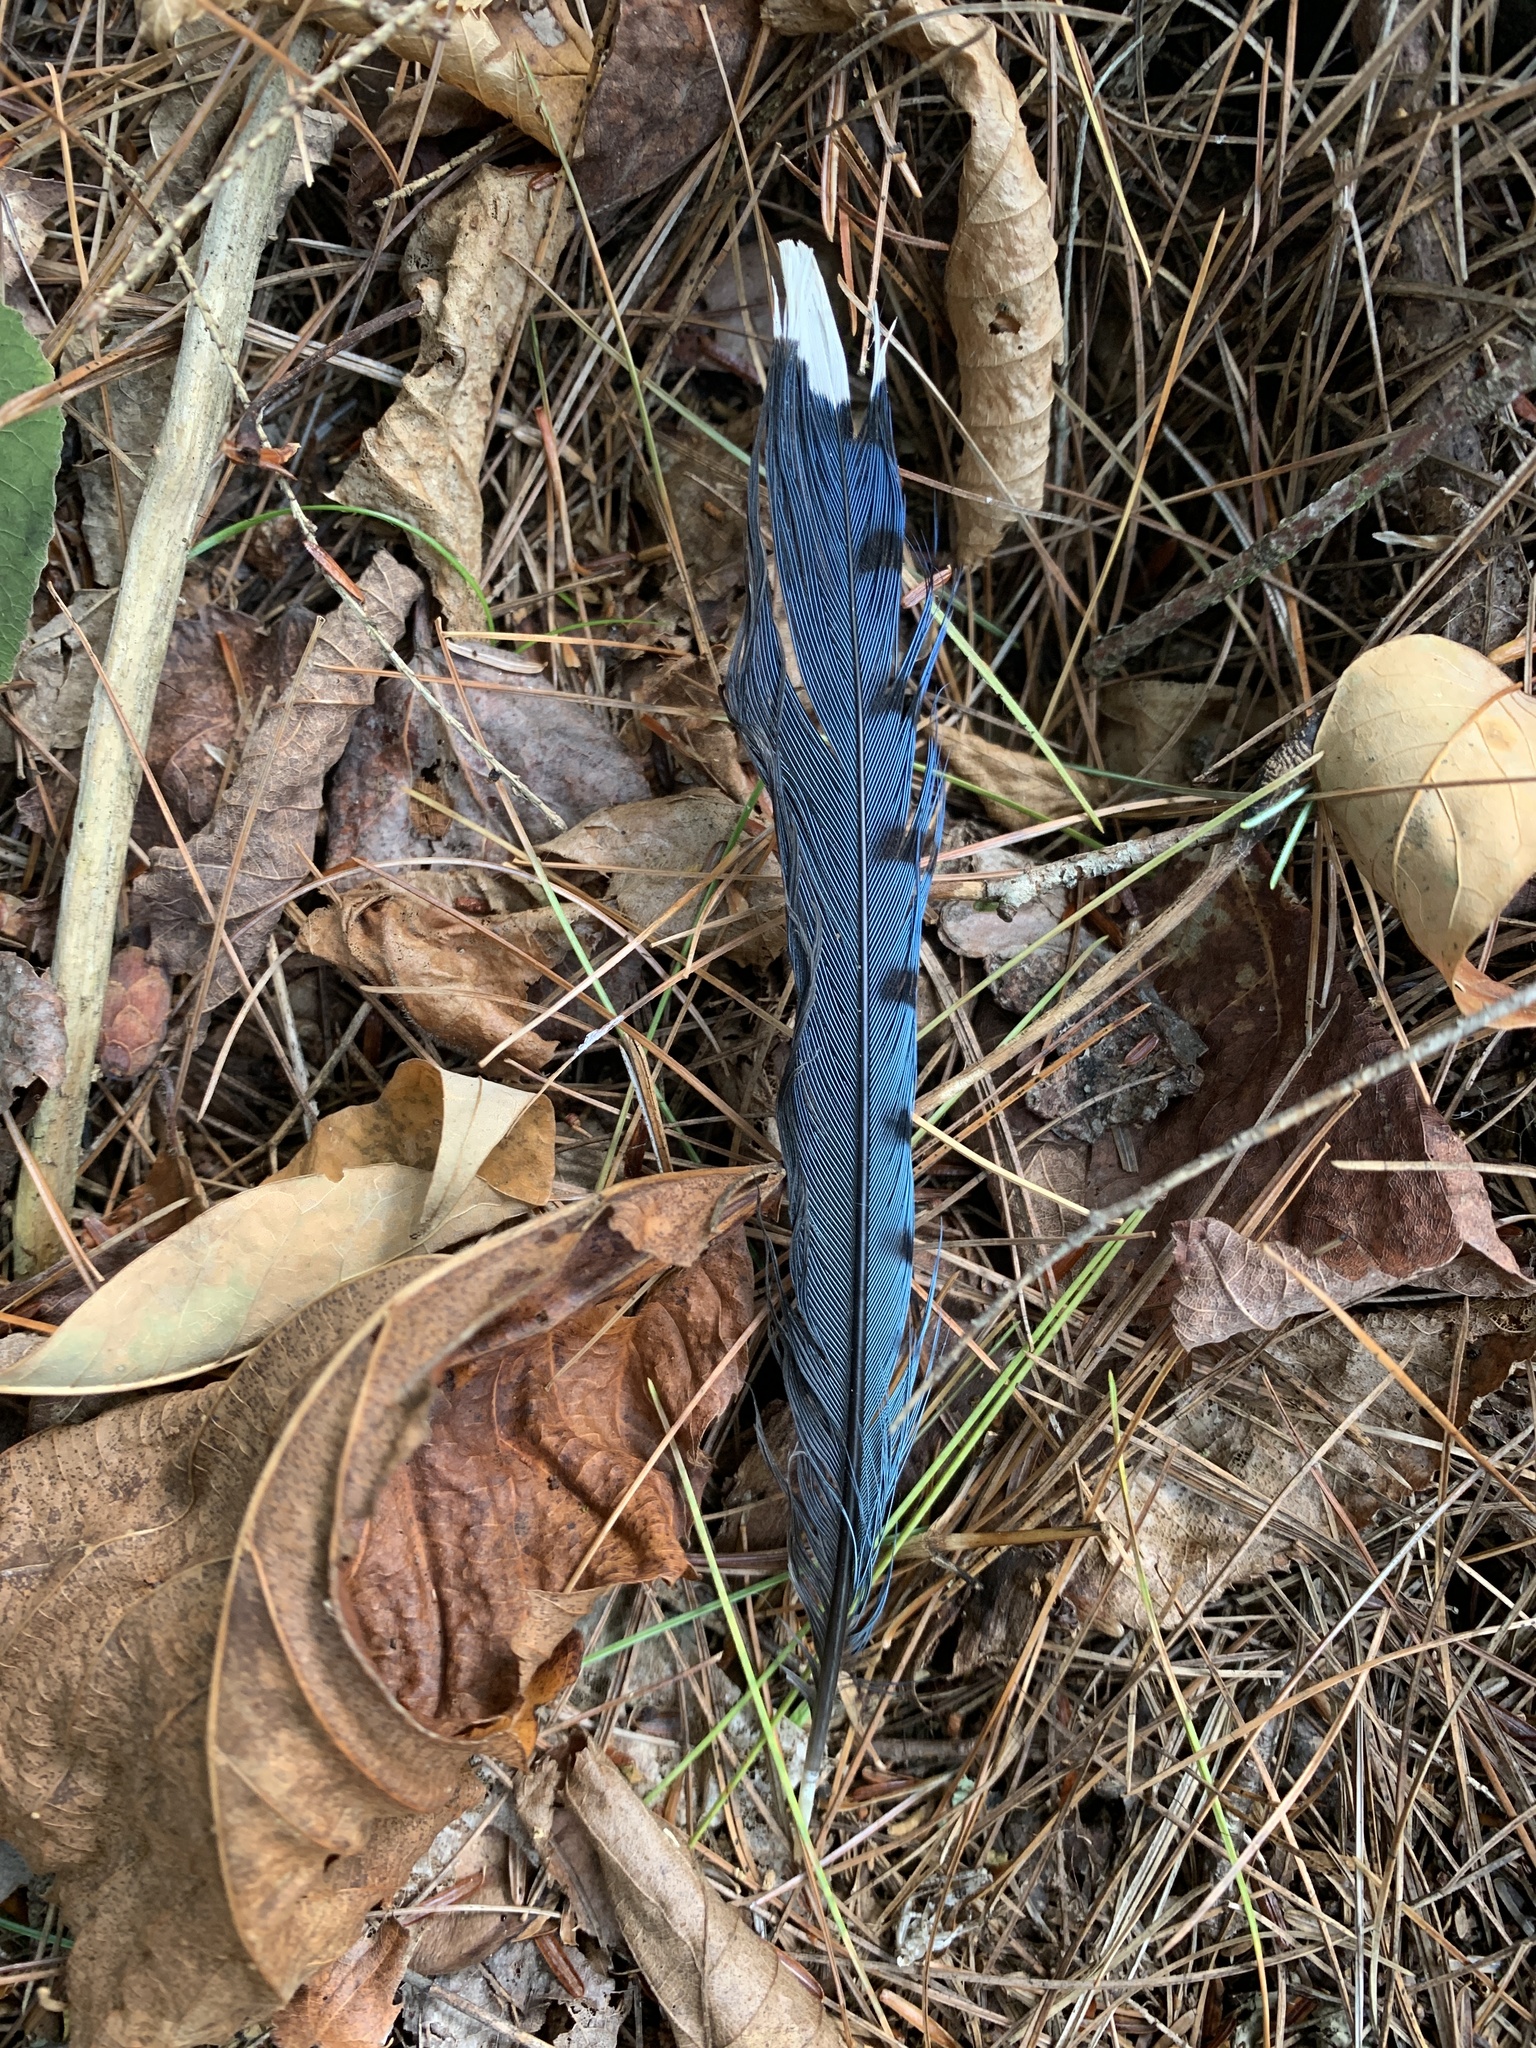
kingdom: Animalia
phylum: Chordata
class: Aves
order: Passeriformes
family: Corvidae
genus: Cyanocitta
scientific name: Cyanocitta cristata
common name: Blue jay
